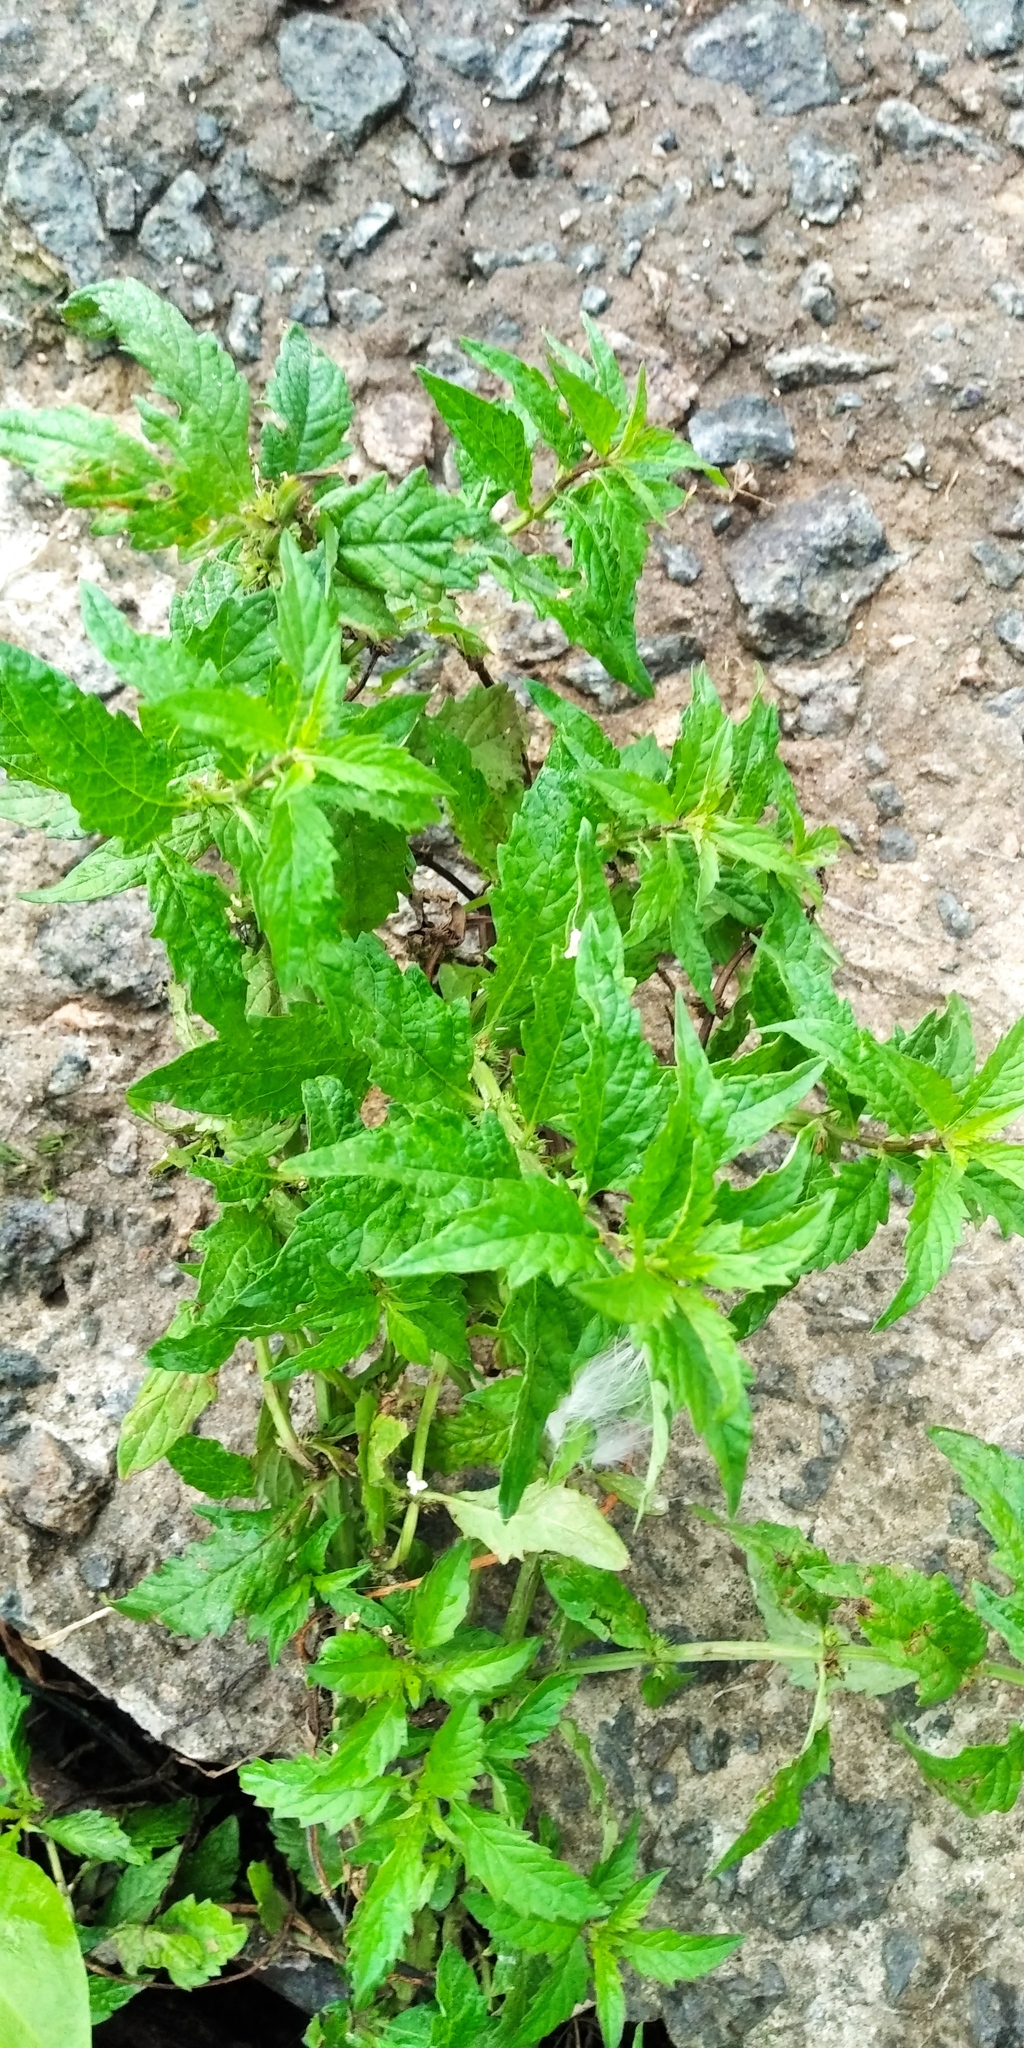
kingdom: Plantae
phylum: Tracheophyta
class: Magnoliopsida
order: Lamiales
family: Lamiaceae
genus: Lycopus
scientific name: Lycopus europaeus
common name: European bugleweed
